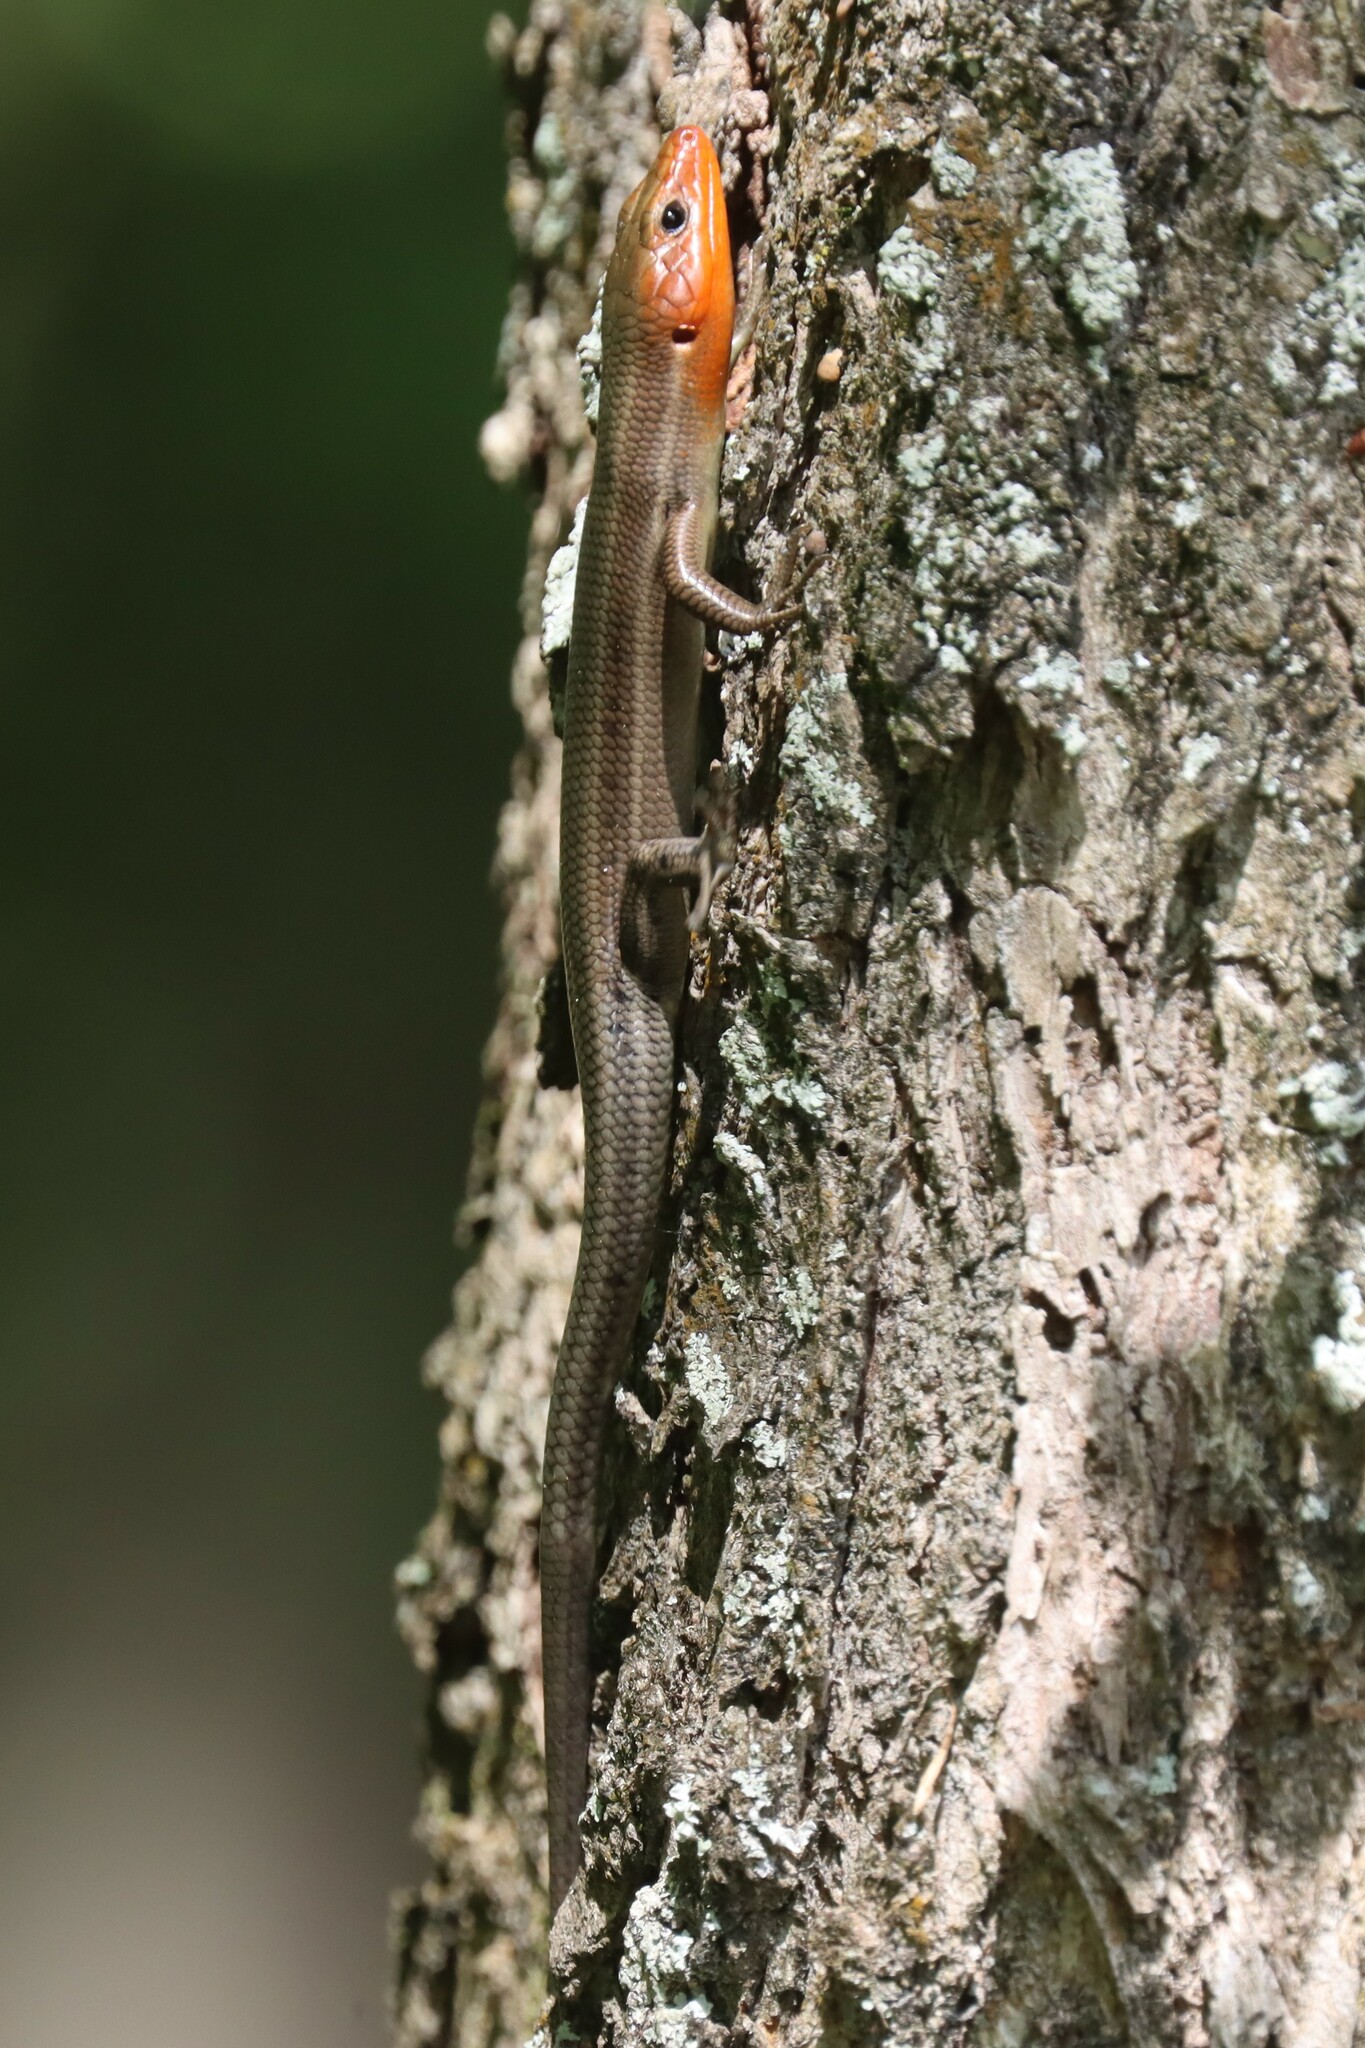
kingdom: Animalia
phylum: Chordata
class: Squamata
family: Scincidae
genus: Plestiodon
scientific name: Plestiodon fasciatus
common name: Five-lined skink
